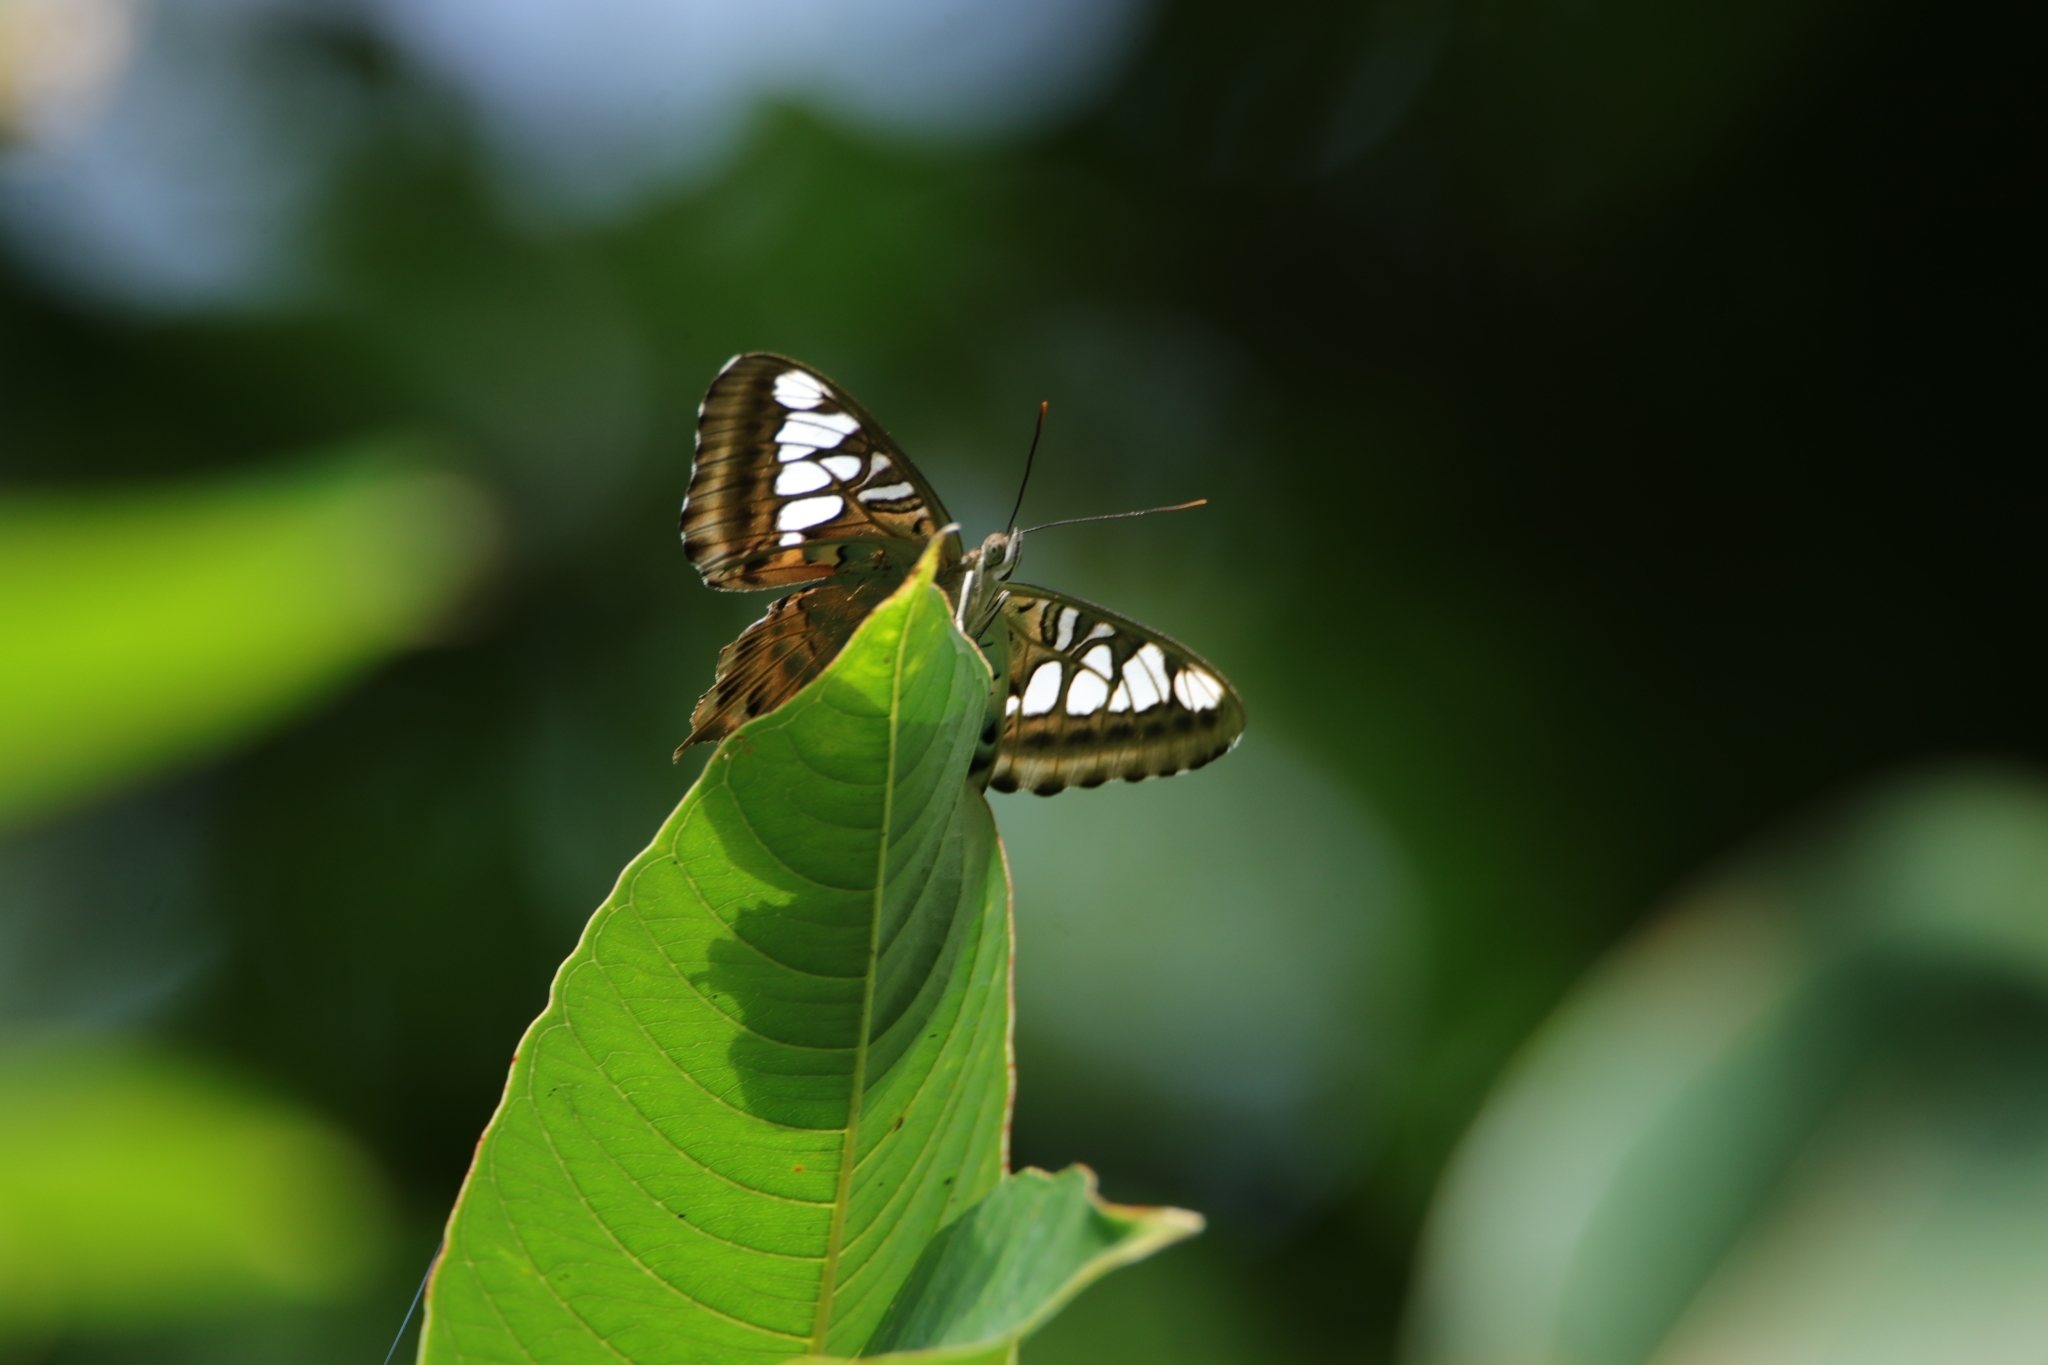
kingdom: Animalia
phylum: Arthropoda
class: Insecta
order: Lepidoptera
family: Nymphalidae
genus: Kallima
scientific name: Kallima sylvia
